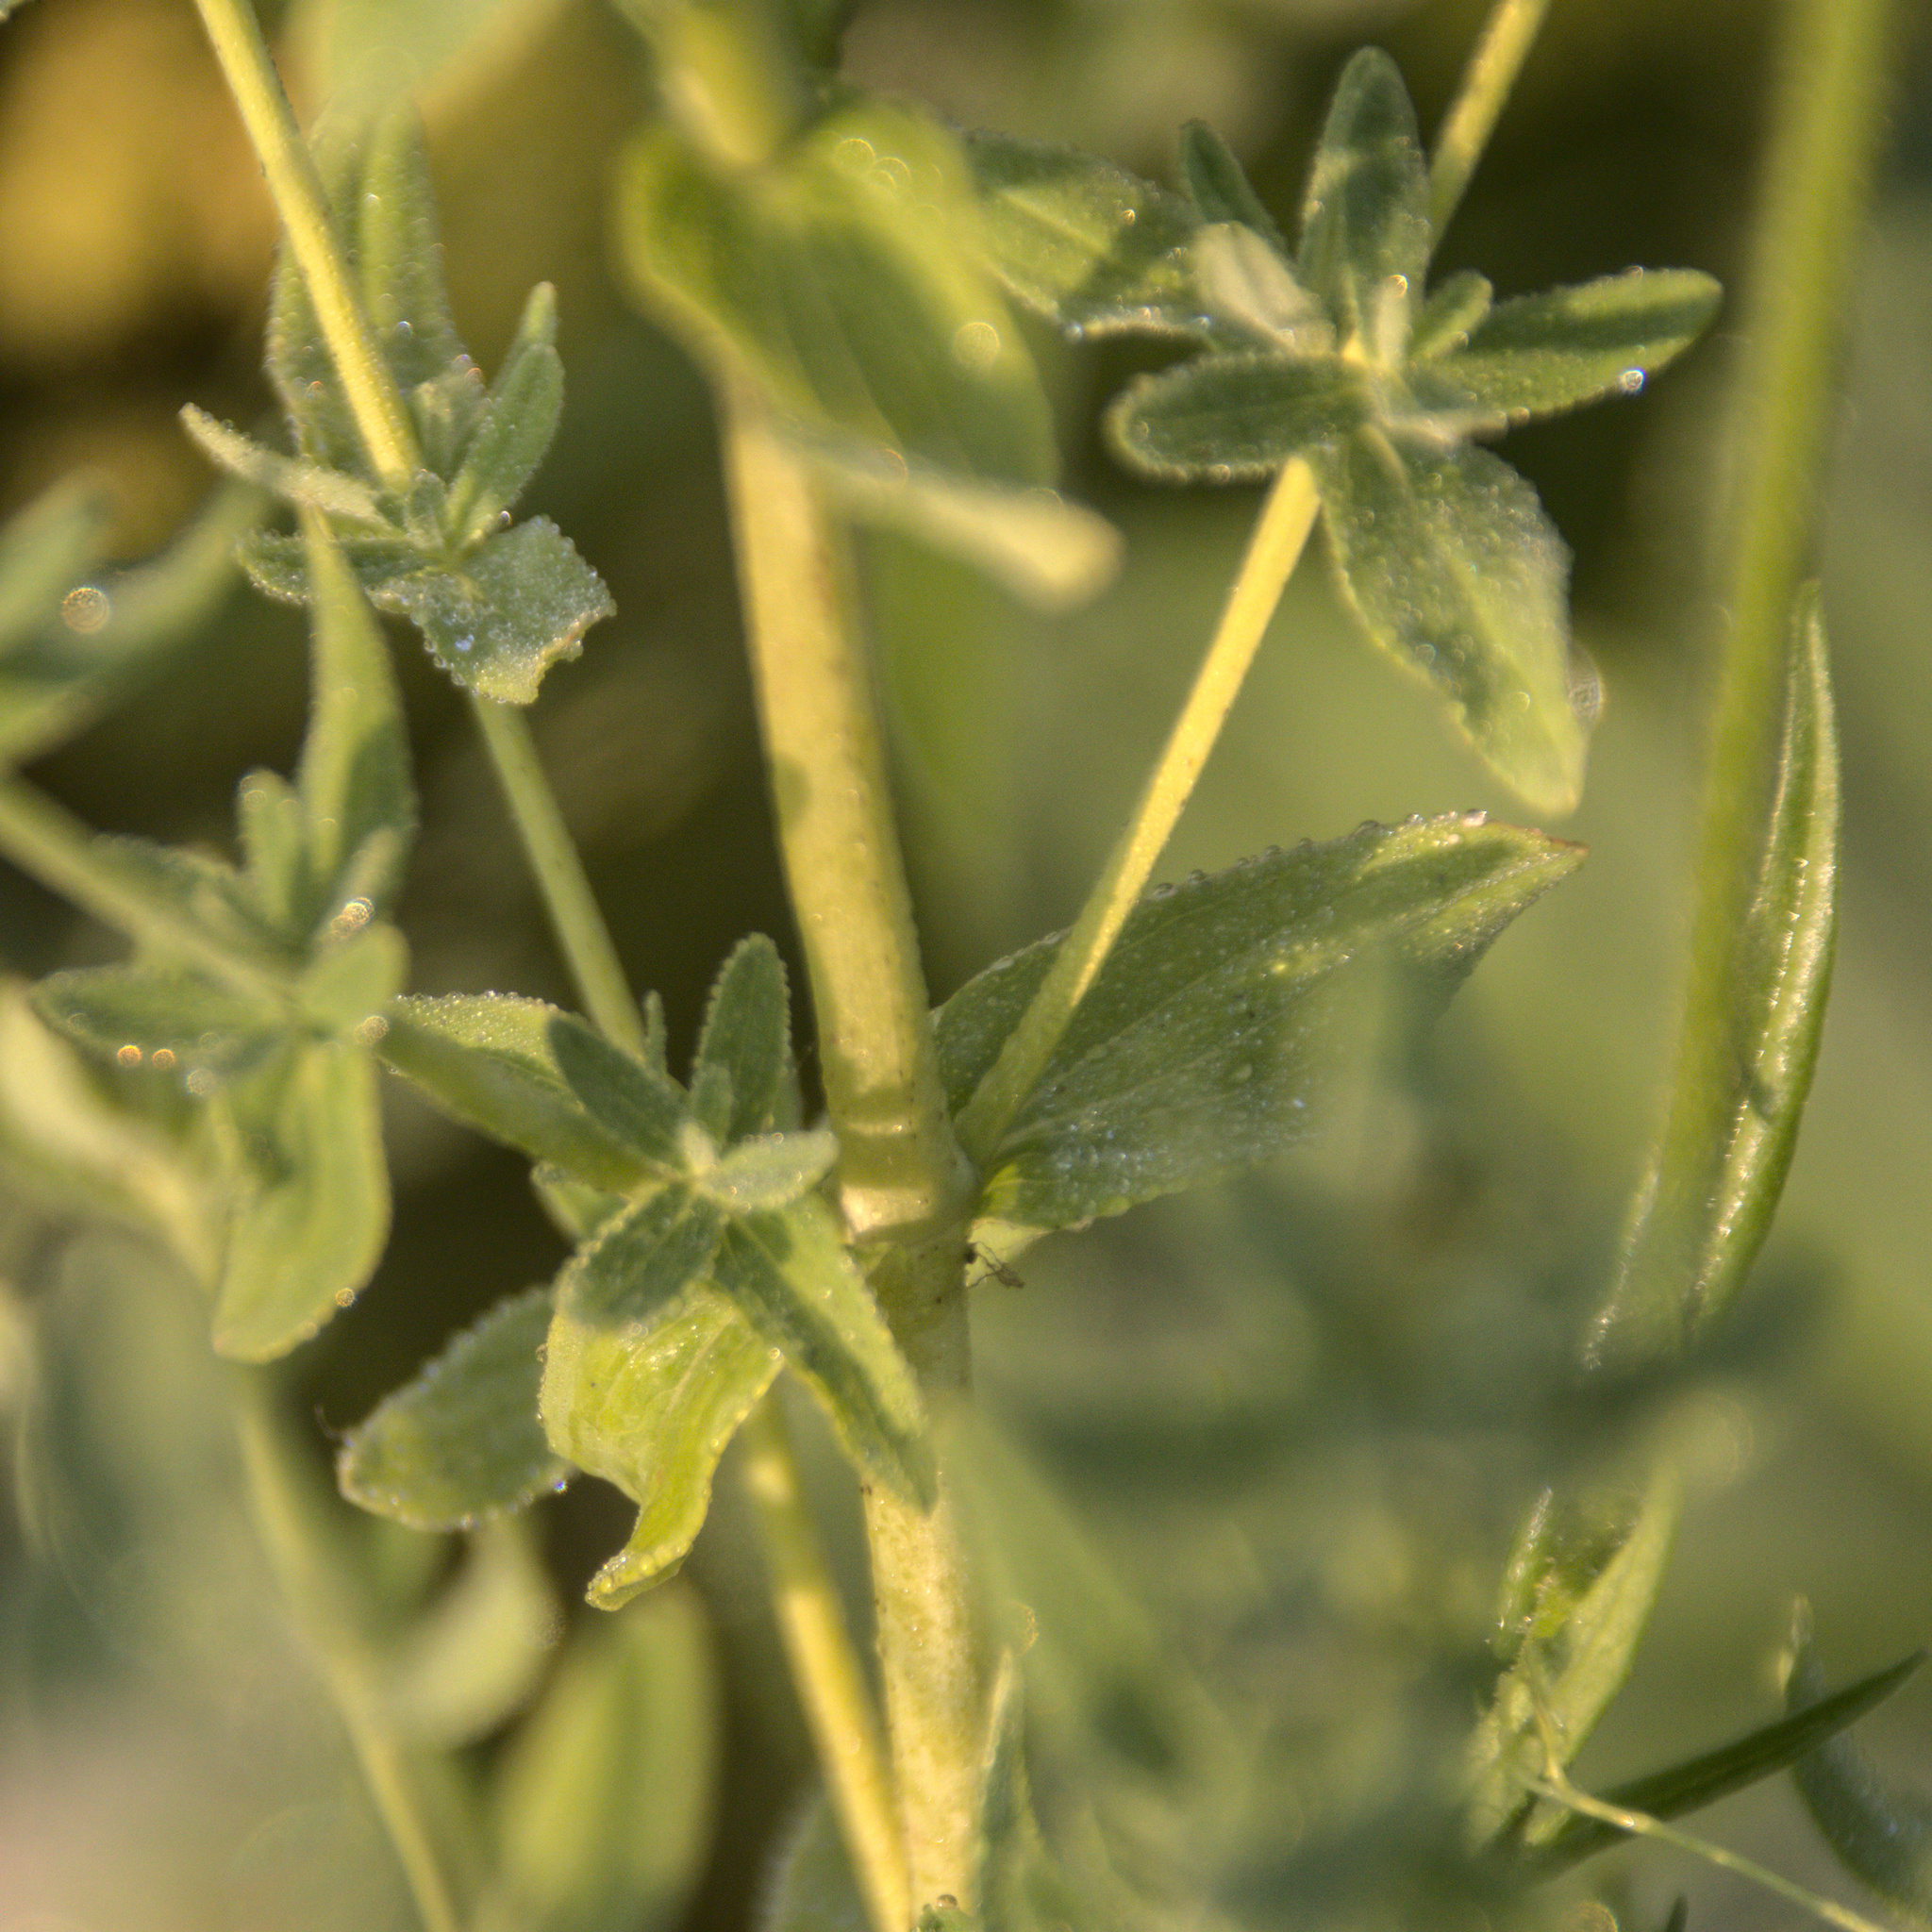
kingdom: Plantae
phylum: Tracheophyta
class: Magnoliopsida
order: Malpighiales
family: Hypericaceae
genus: Hypericum
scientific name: Hypericum perforatum
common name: Common st. johnswort
